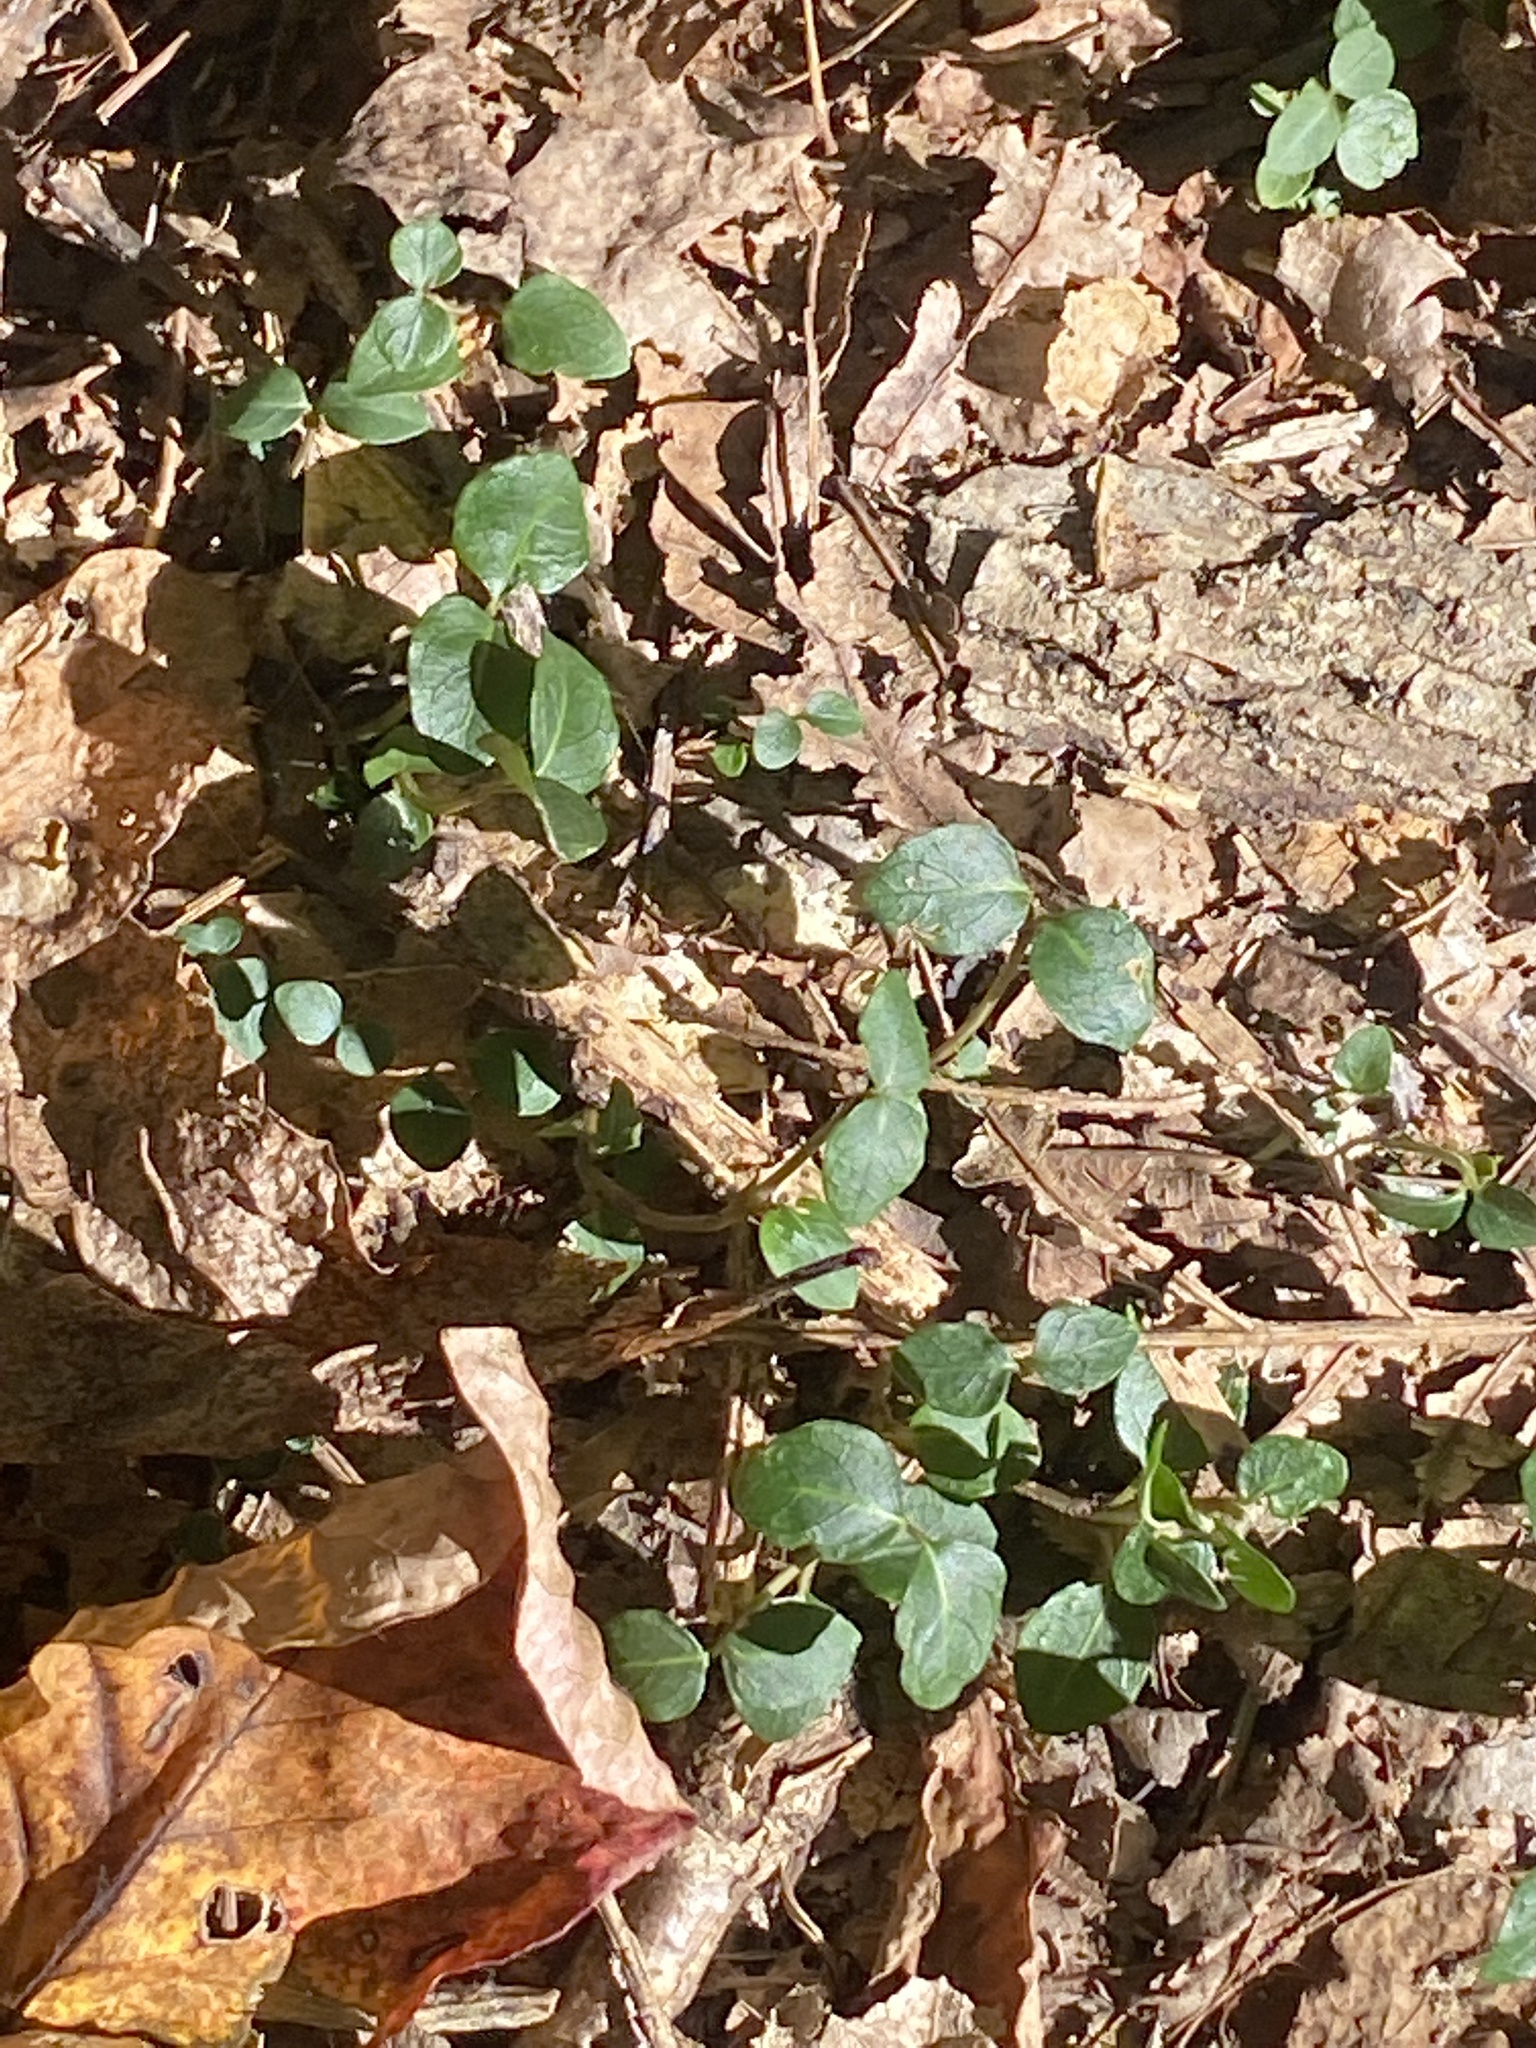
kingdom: Plantae
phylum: Tracheophyta
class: Magnoliopsida
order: Gentianales
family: Rubiaceae
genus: Mitchella
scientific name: Mitchella repens
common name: Partridge-berry
